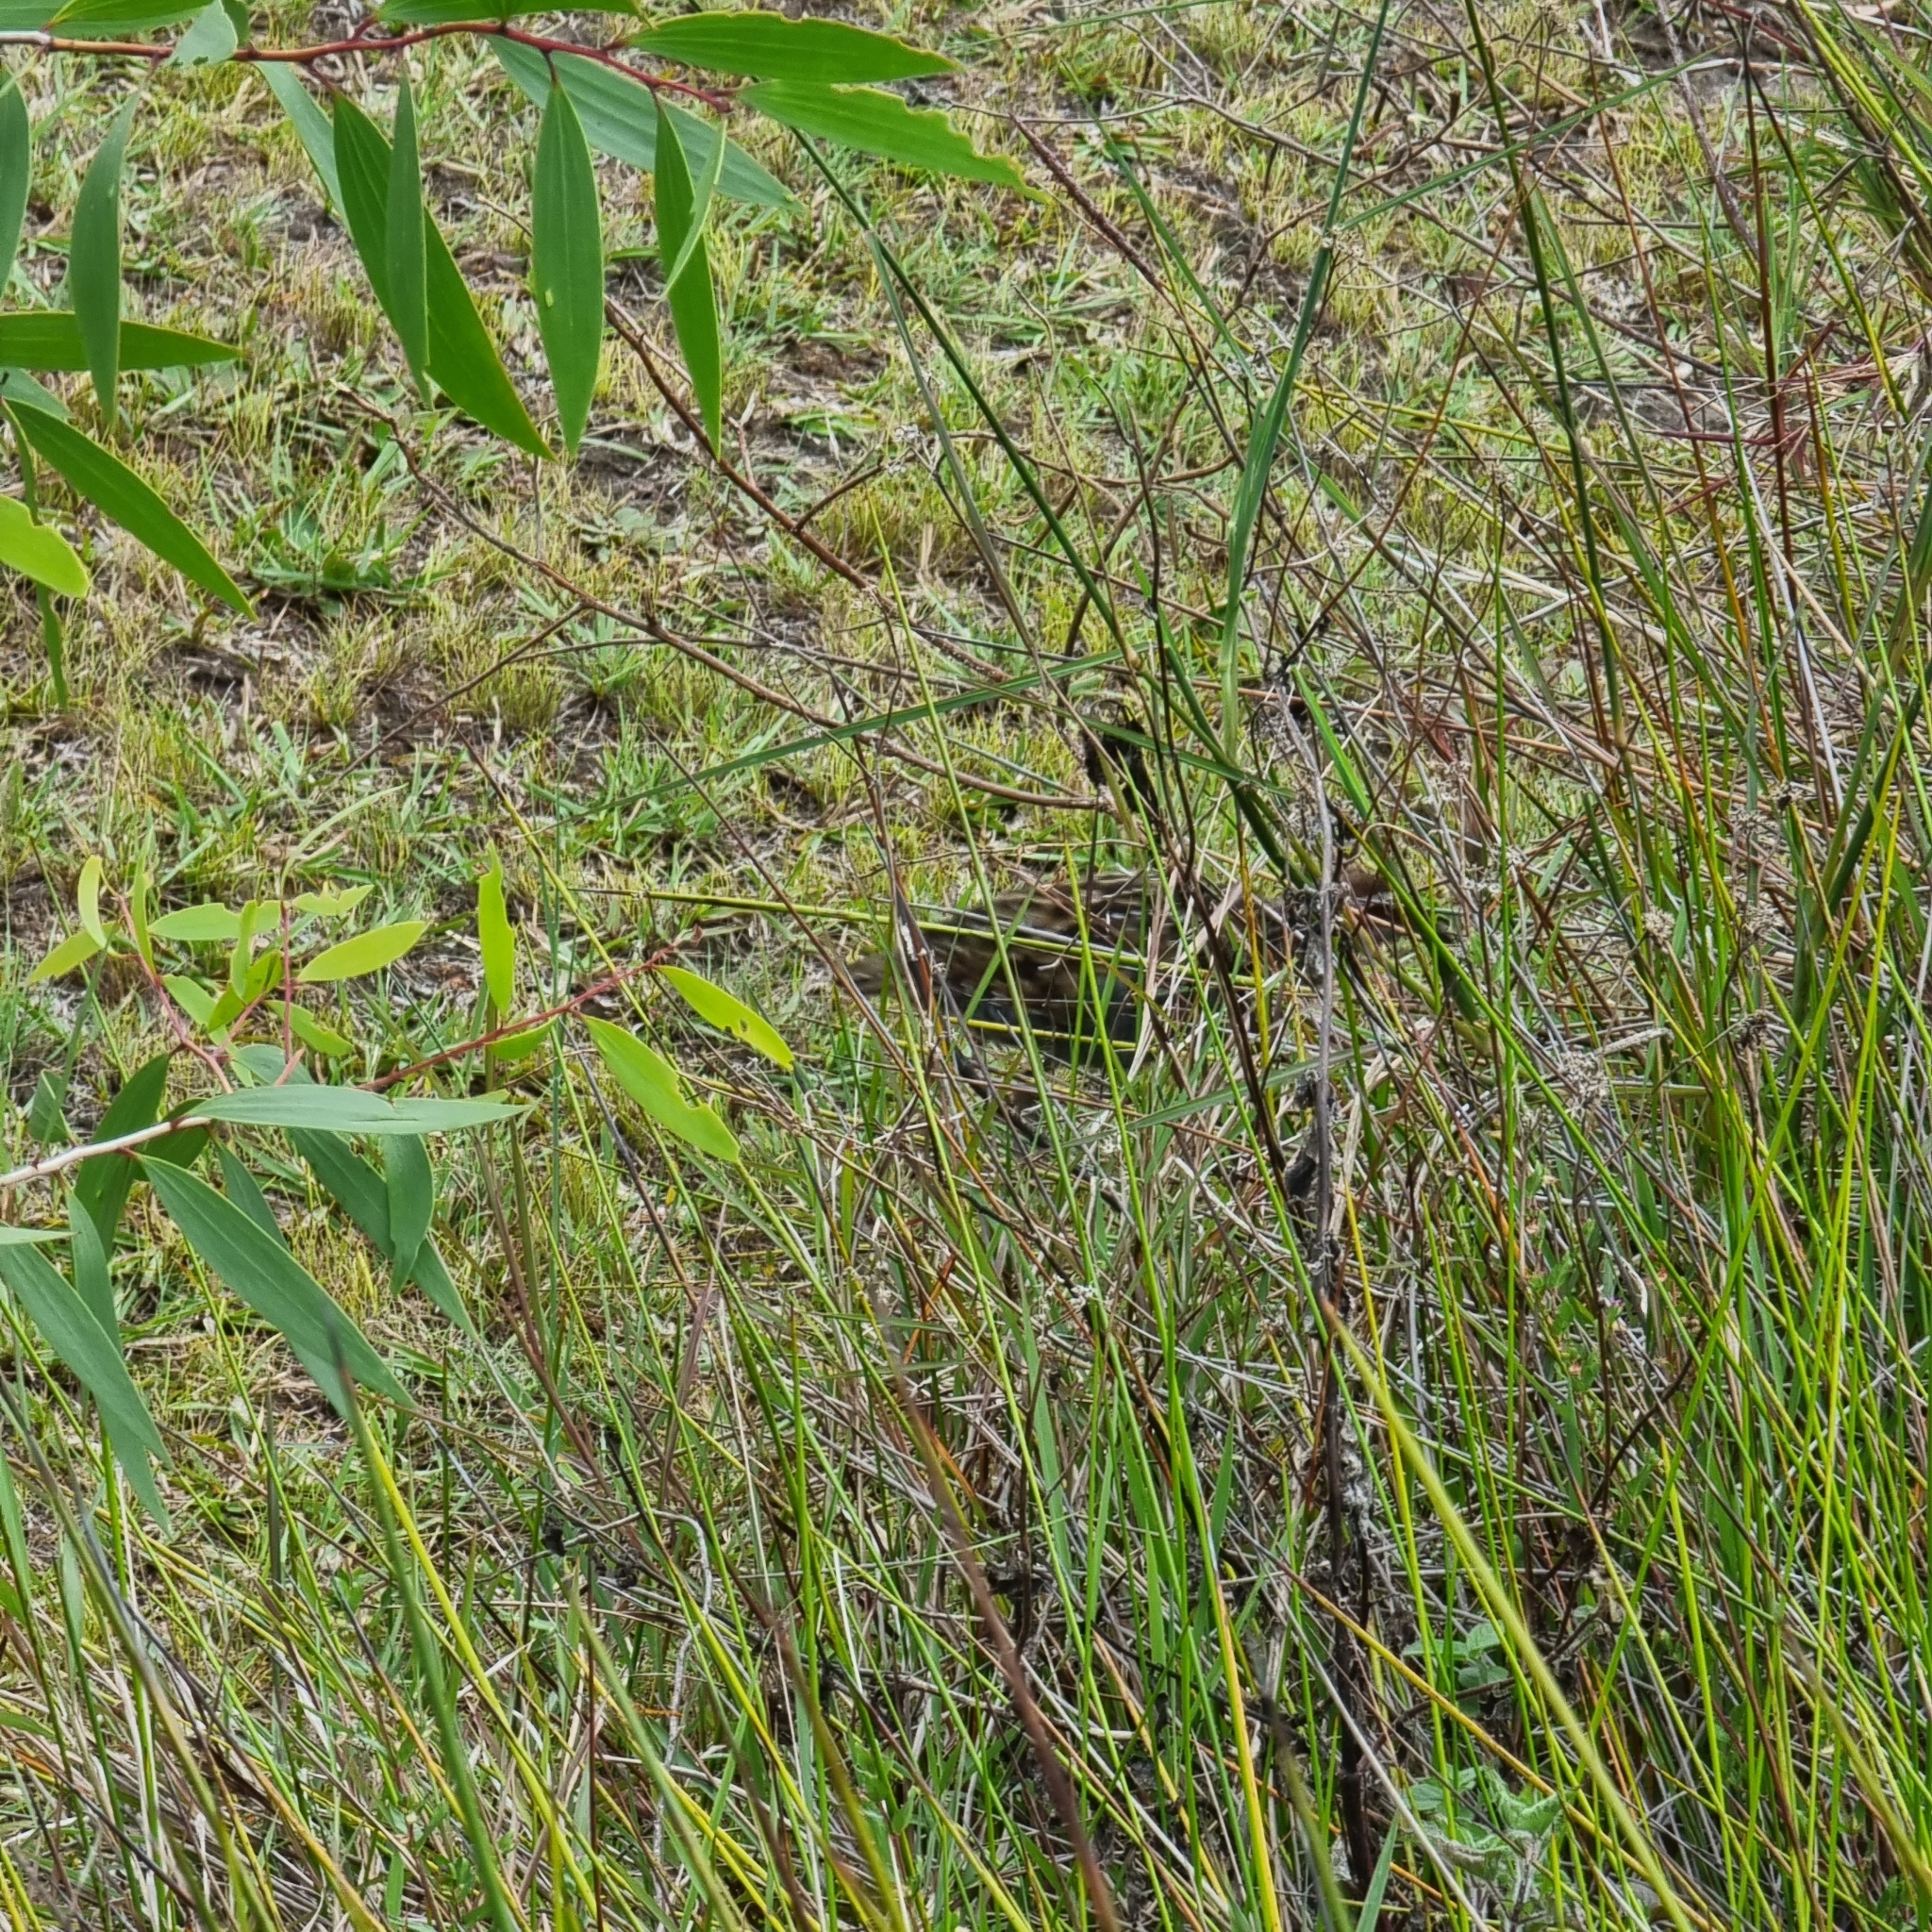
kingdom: Animalia
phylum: Chordata
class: Aves
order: Gruiformes
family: Rallidae
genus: Gallirallus
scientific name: Gallirallus philippensis
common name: Buff-banded rail
